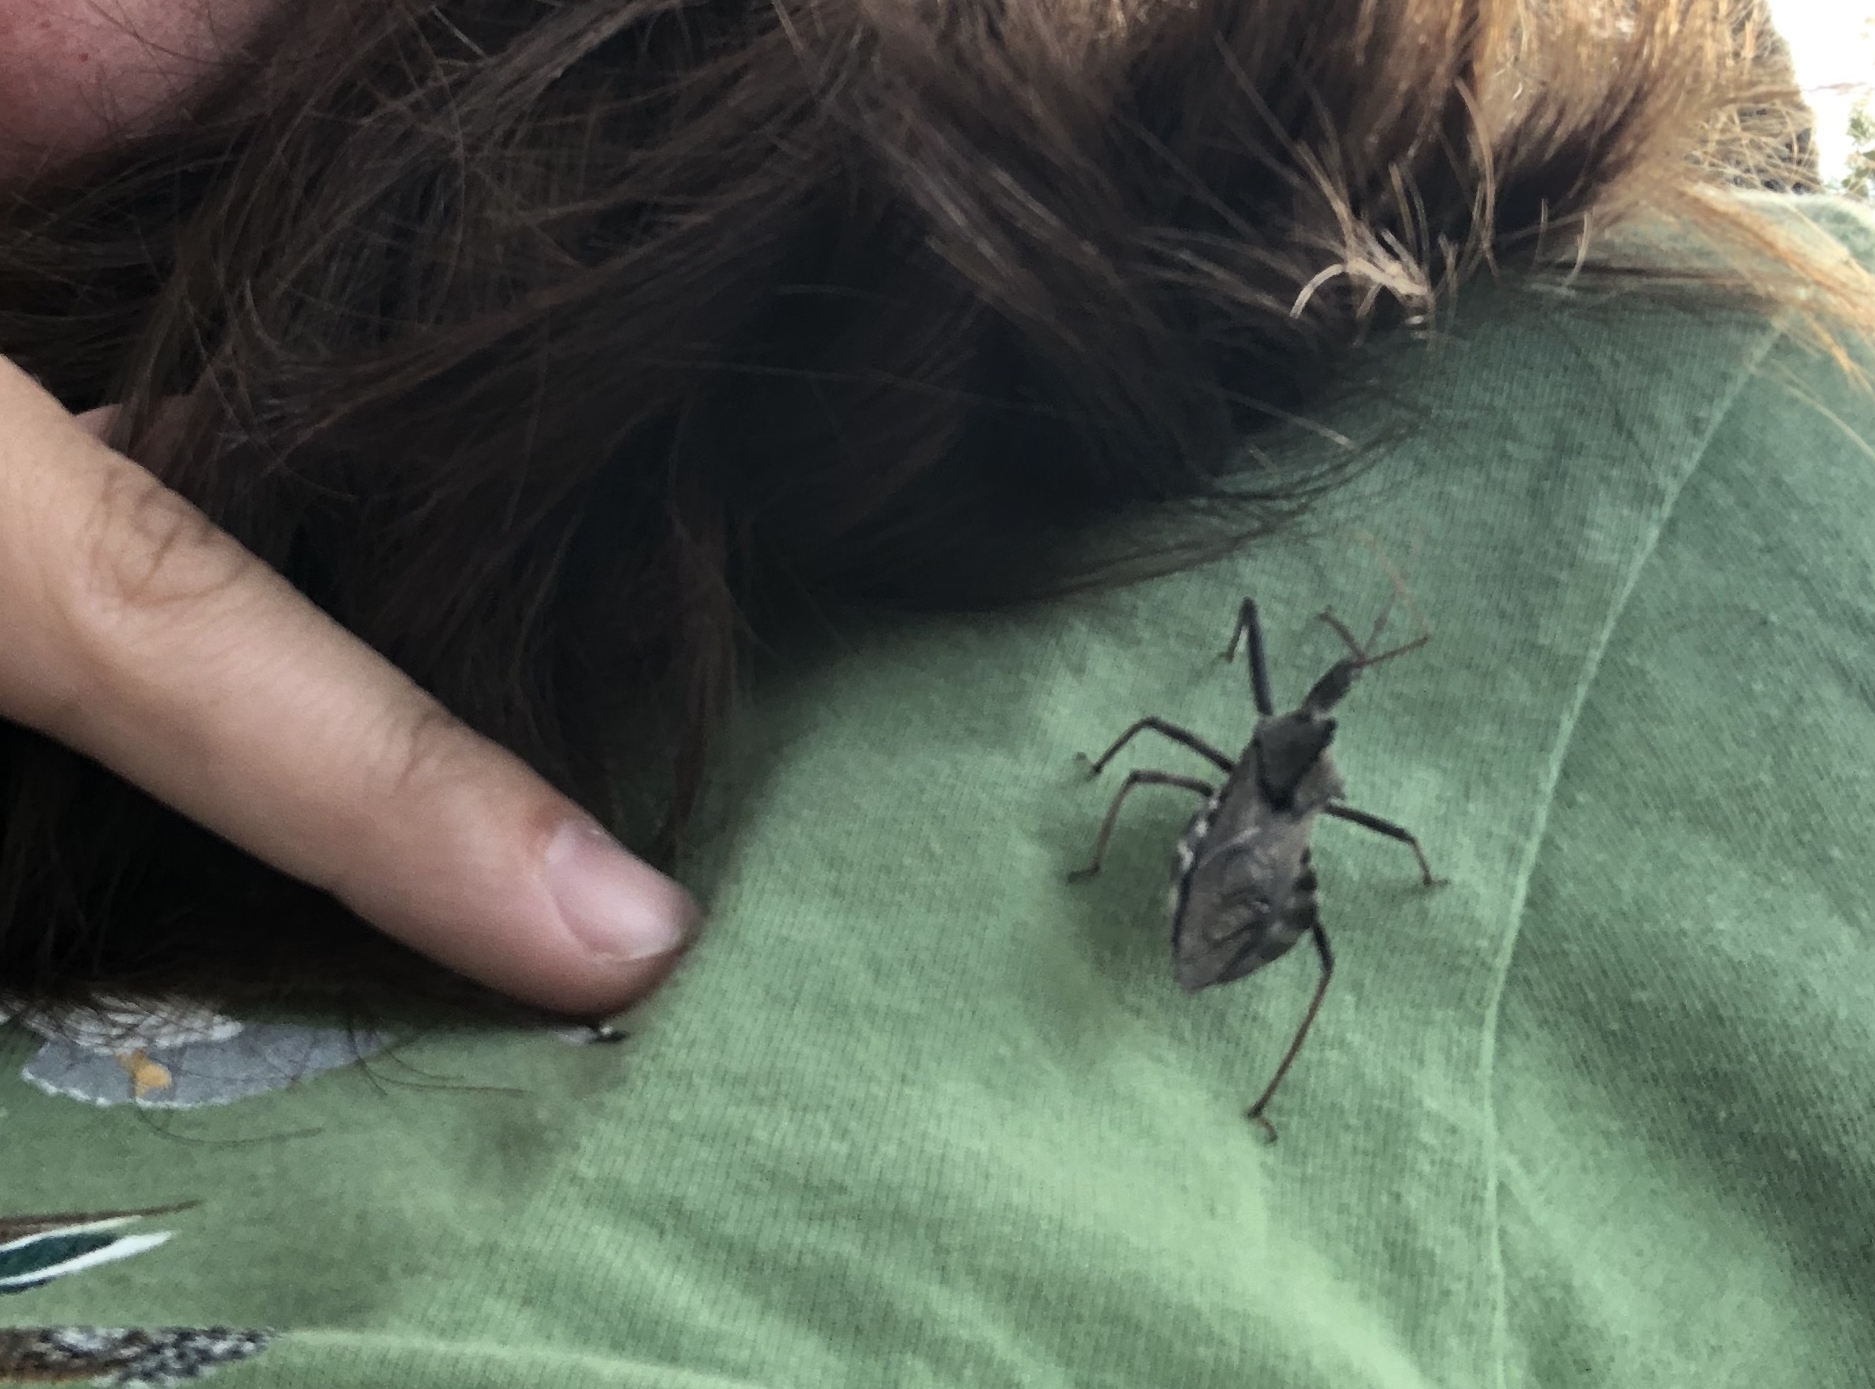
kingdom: Animalia
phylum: Arthropoda
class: Insecta
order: Hemiptera
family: Reduviidae
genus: Arilus
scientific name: Arilus cristatus
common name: North american wheel bug
